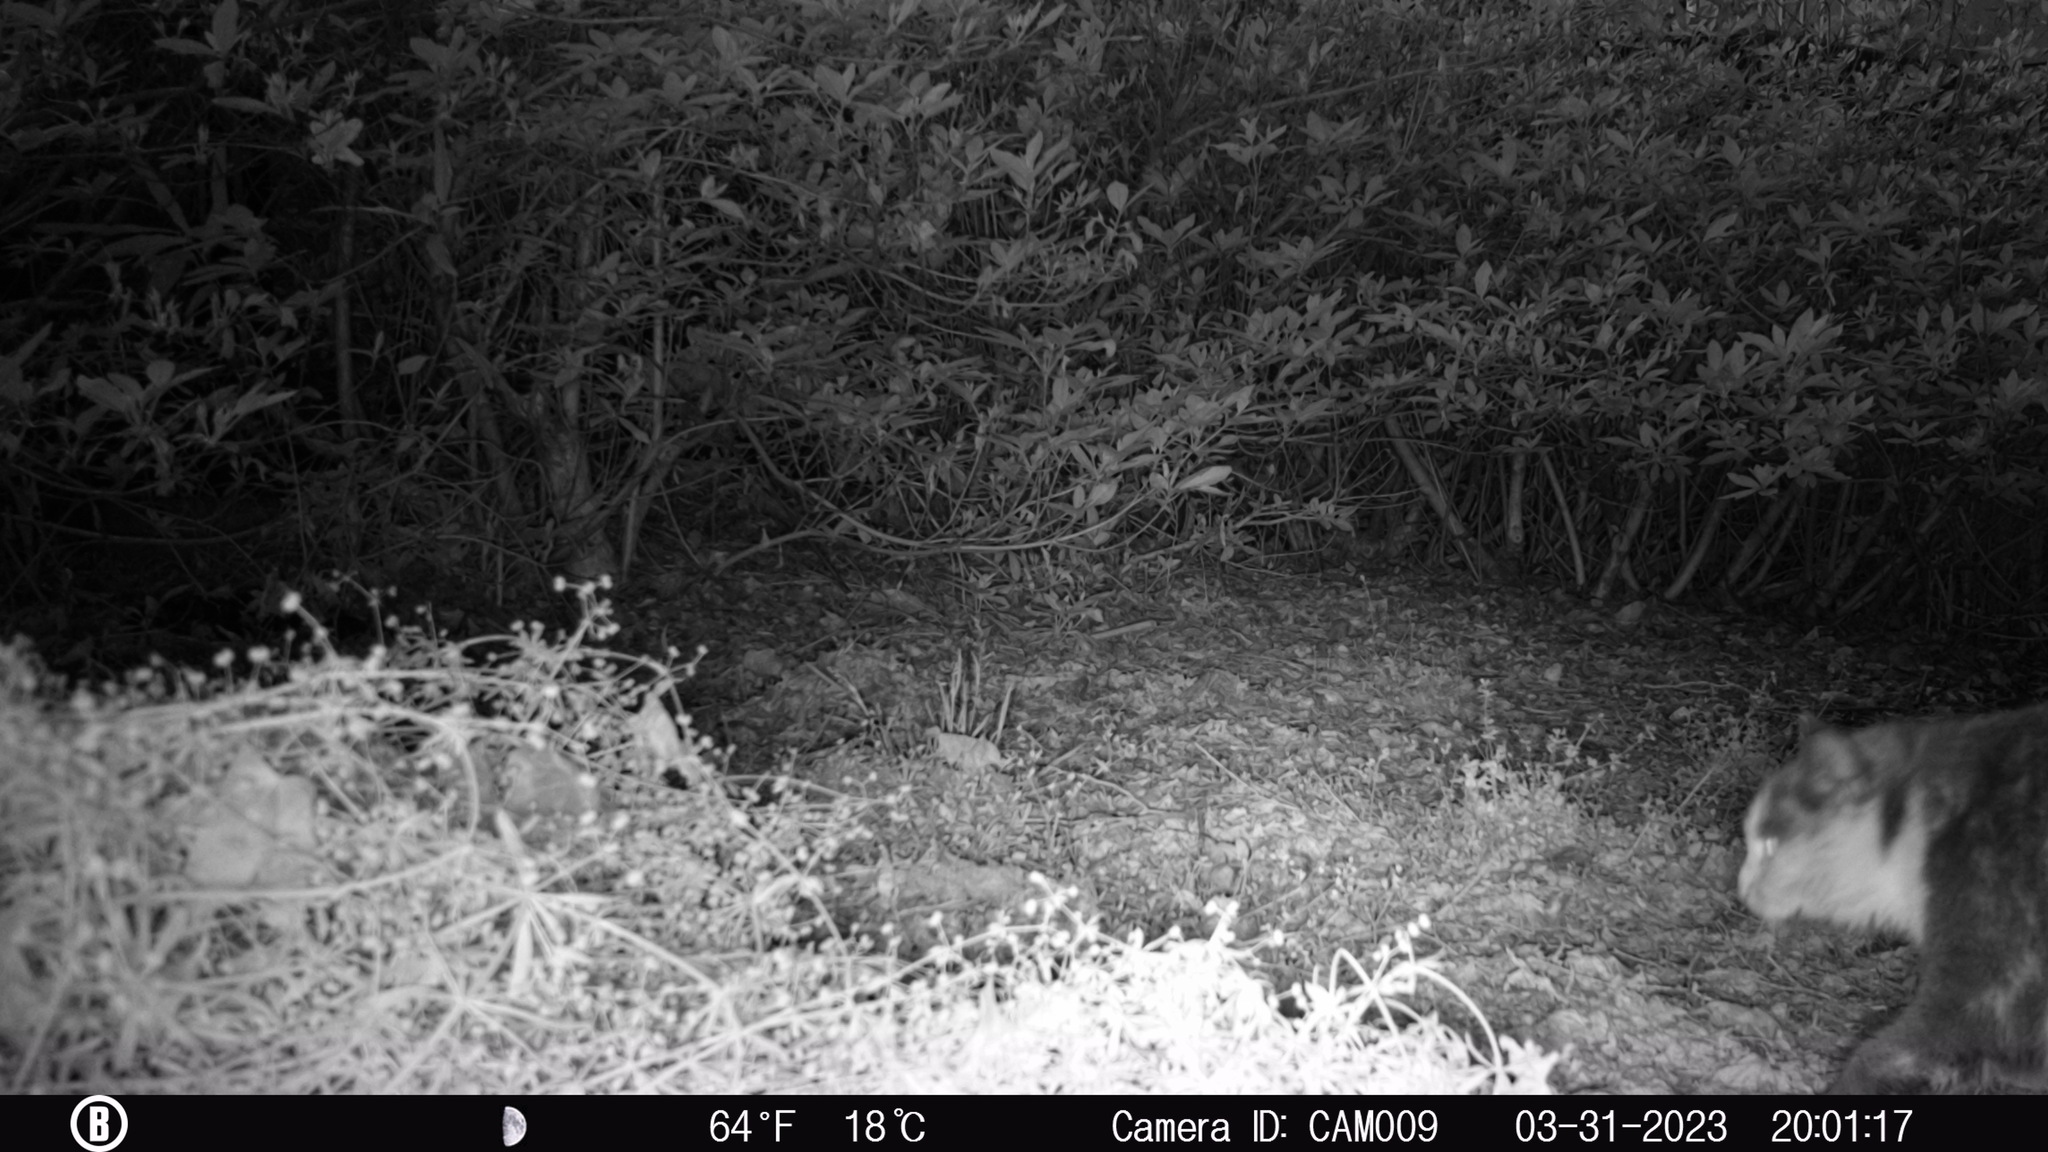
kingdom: Animalia
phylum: Chordata
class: Mammalia
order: Carnivora
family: Felidae
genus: Felis
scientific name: Felis catus
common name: Domestic cat
